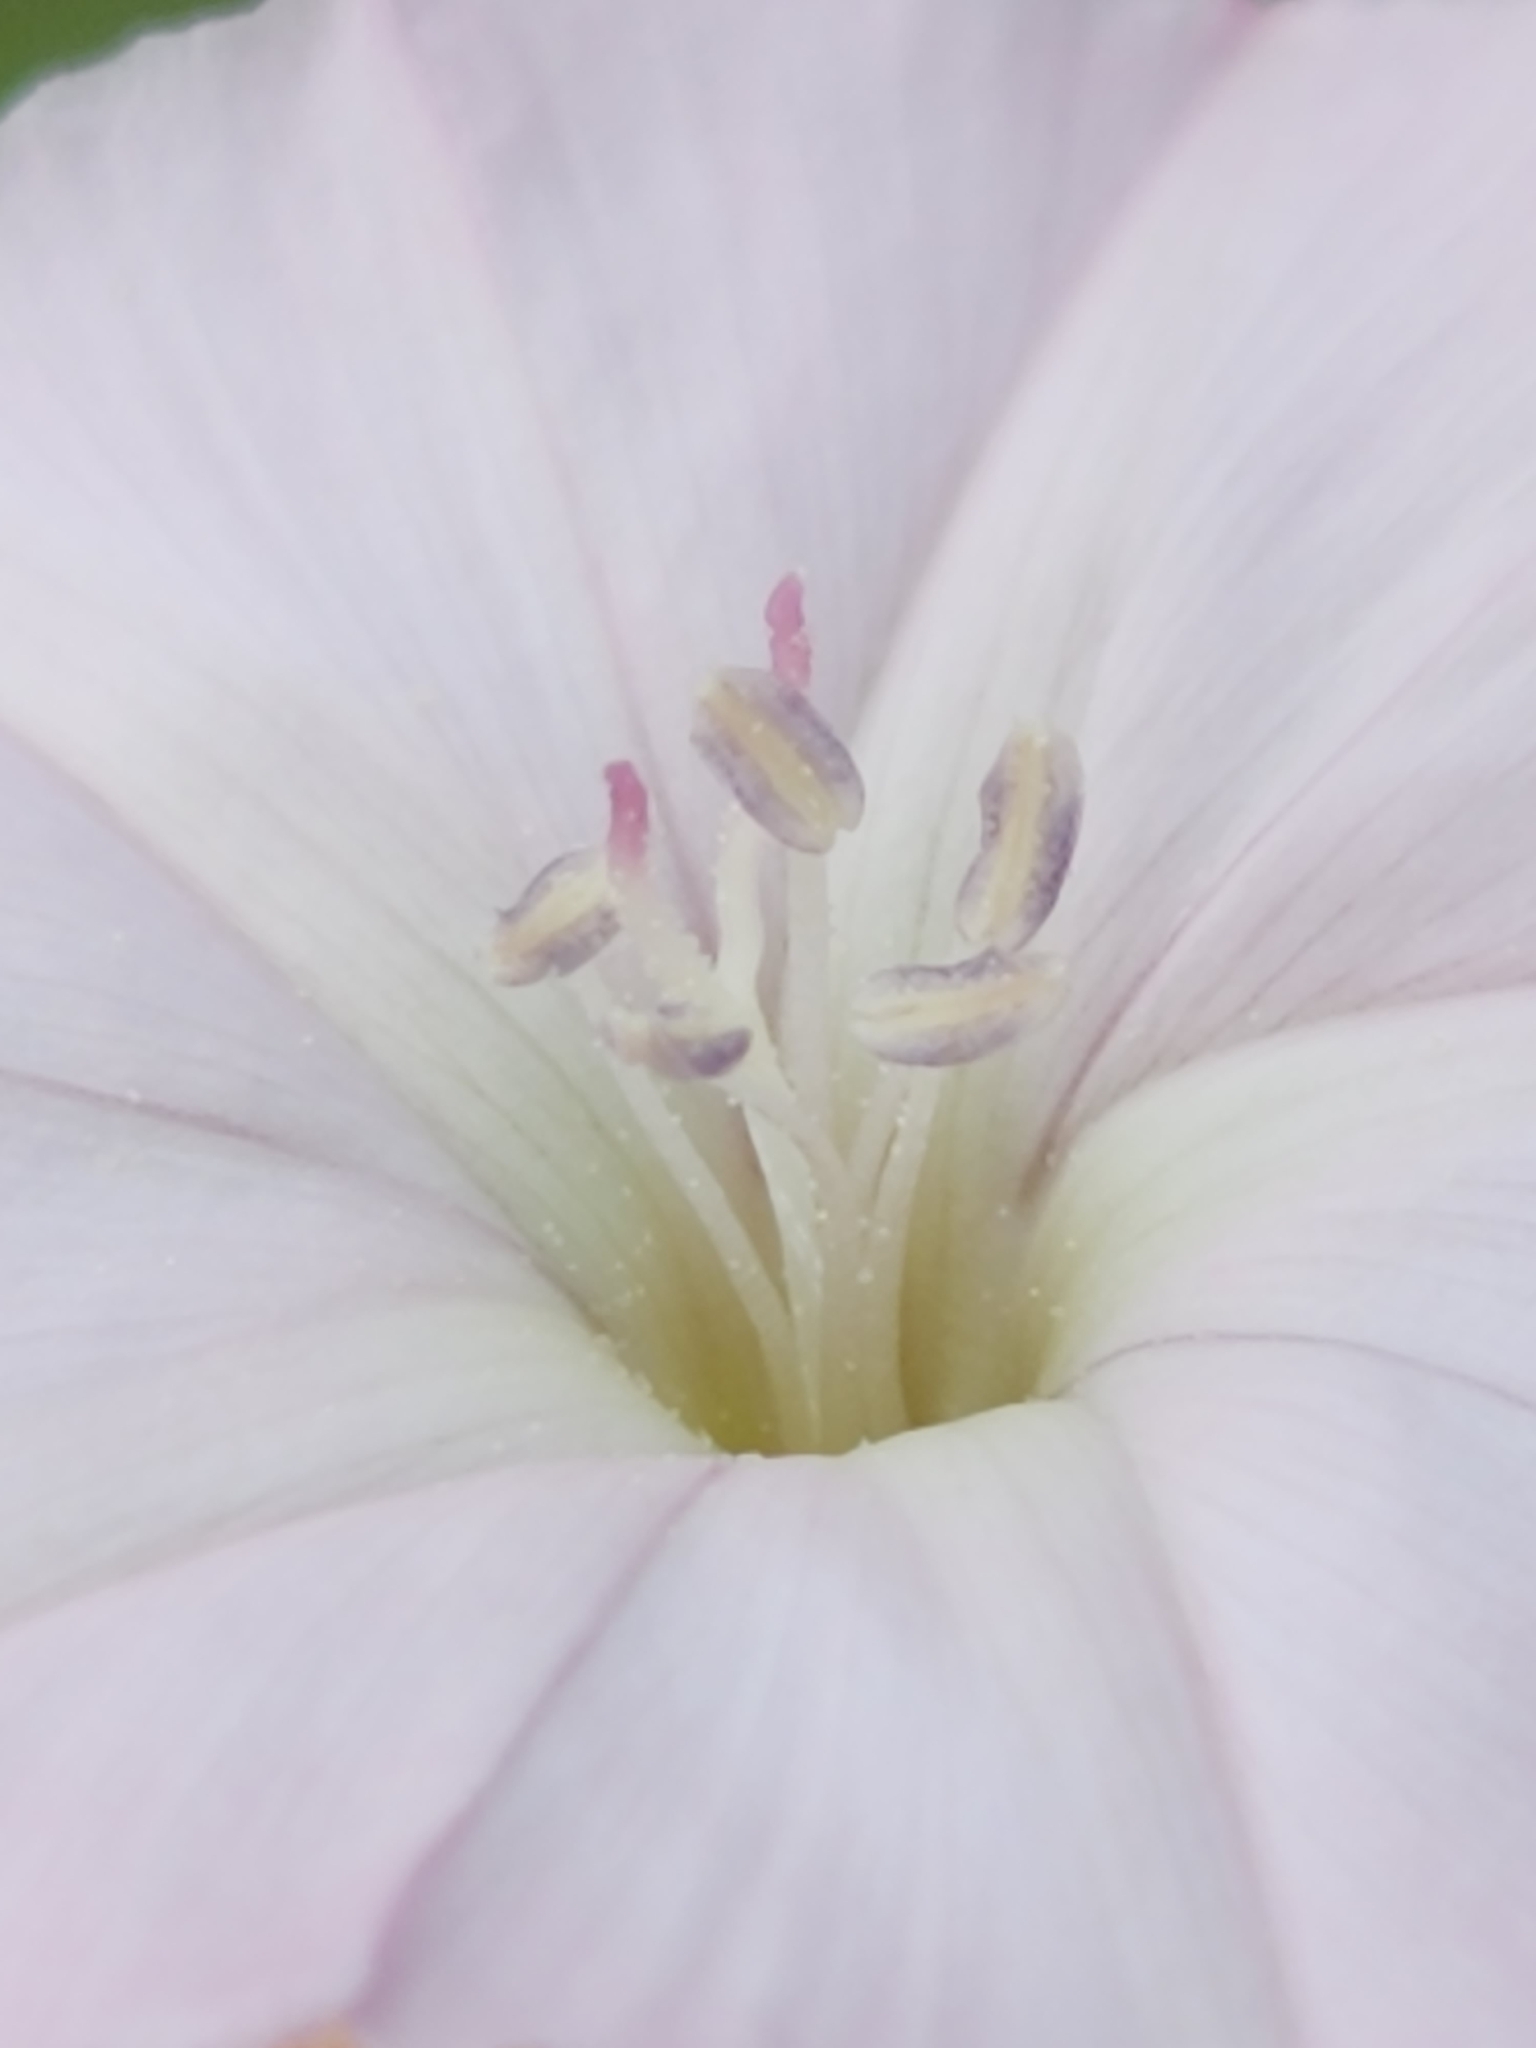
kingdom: Plantae
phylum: Tracheophyta
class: Magnoliopsida
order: Solanales
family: Convolvulaceae
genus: Convolvulus
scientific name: Convolvulus equitans
